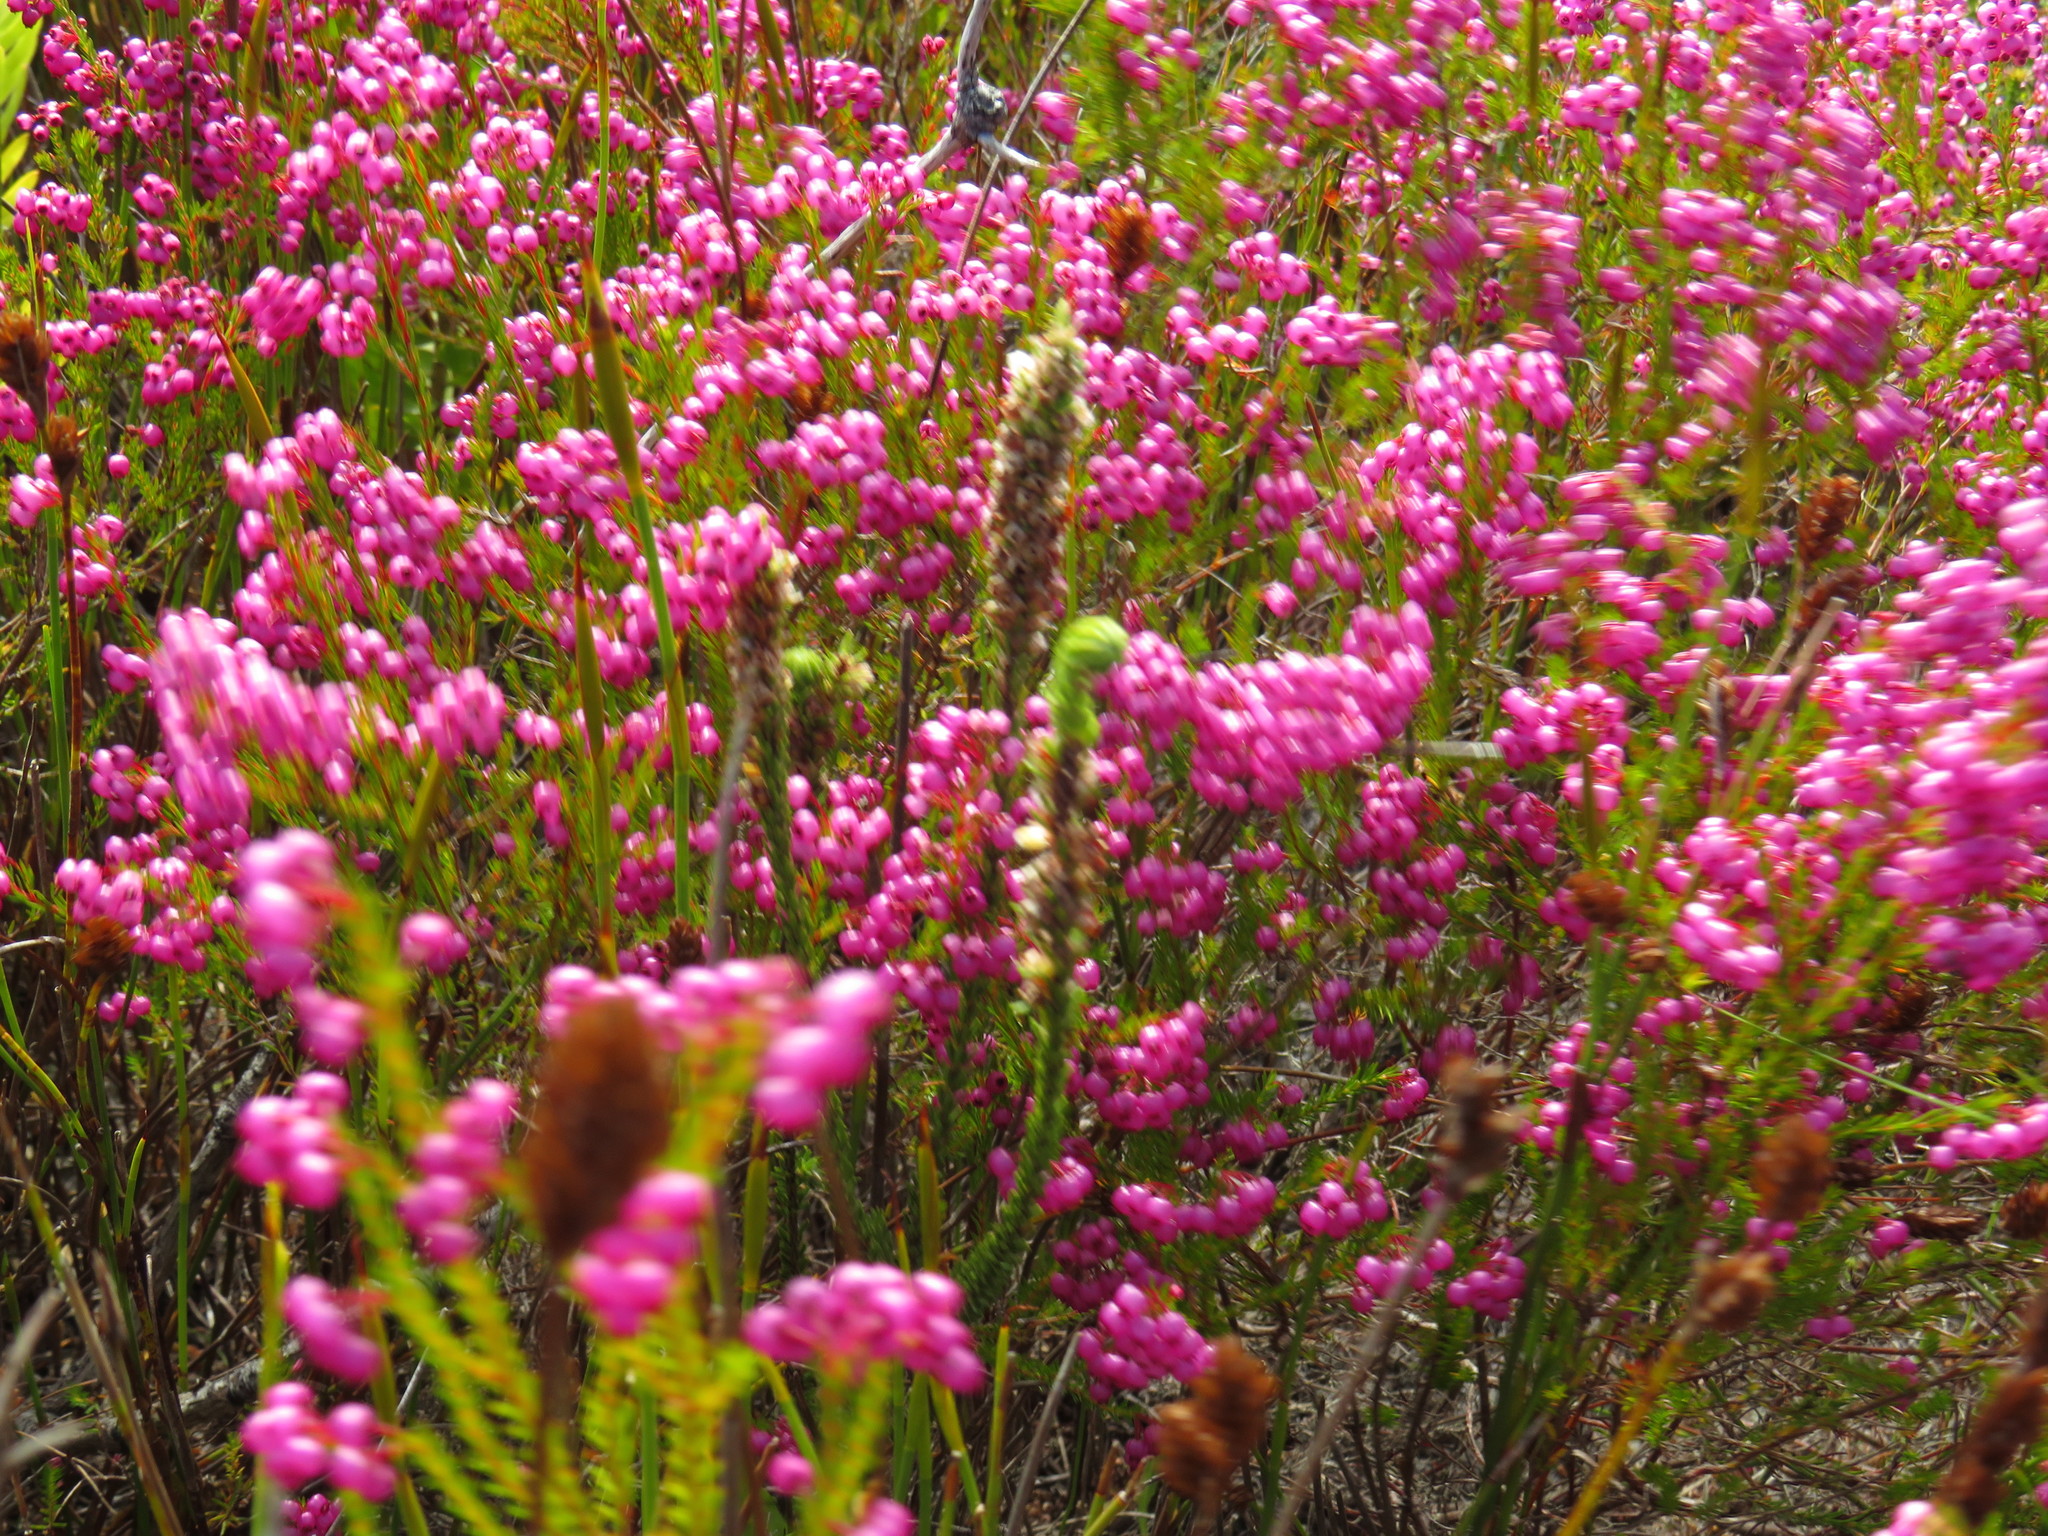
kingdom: Plantae
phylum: Tracheophyta
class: Magnoliopsida
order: Ericales
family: Ericaceae
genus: Erica
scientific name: Erica pyxidiflora
